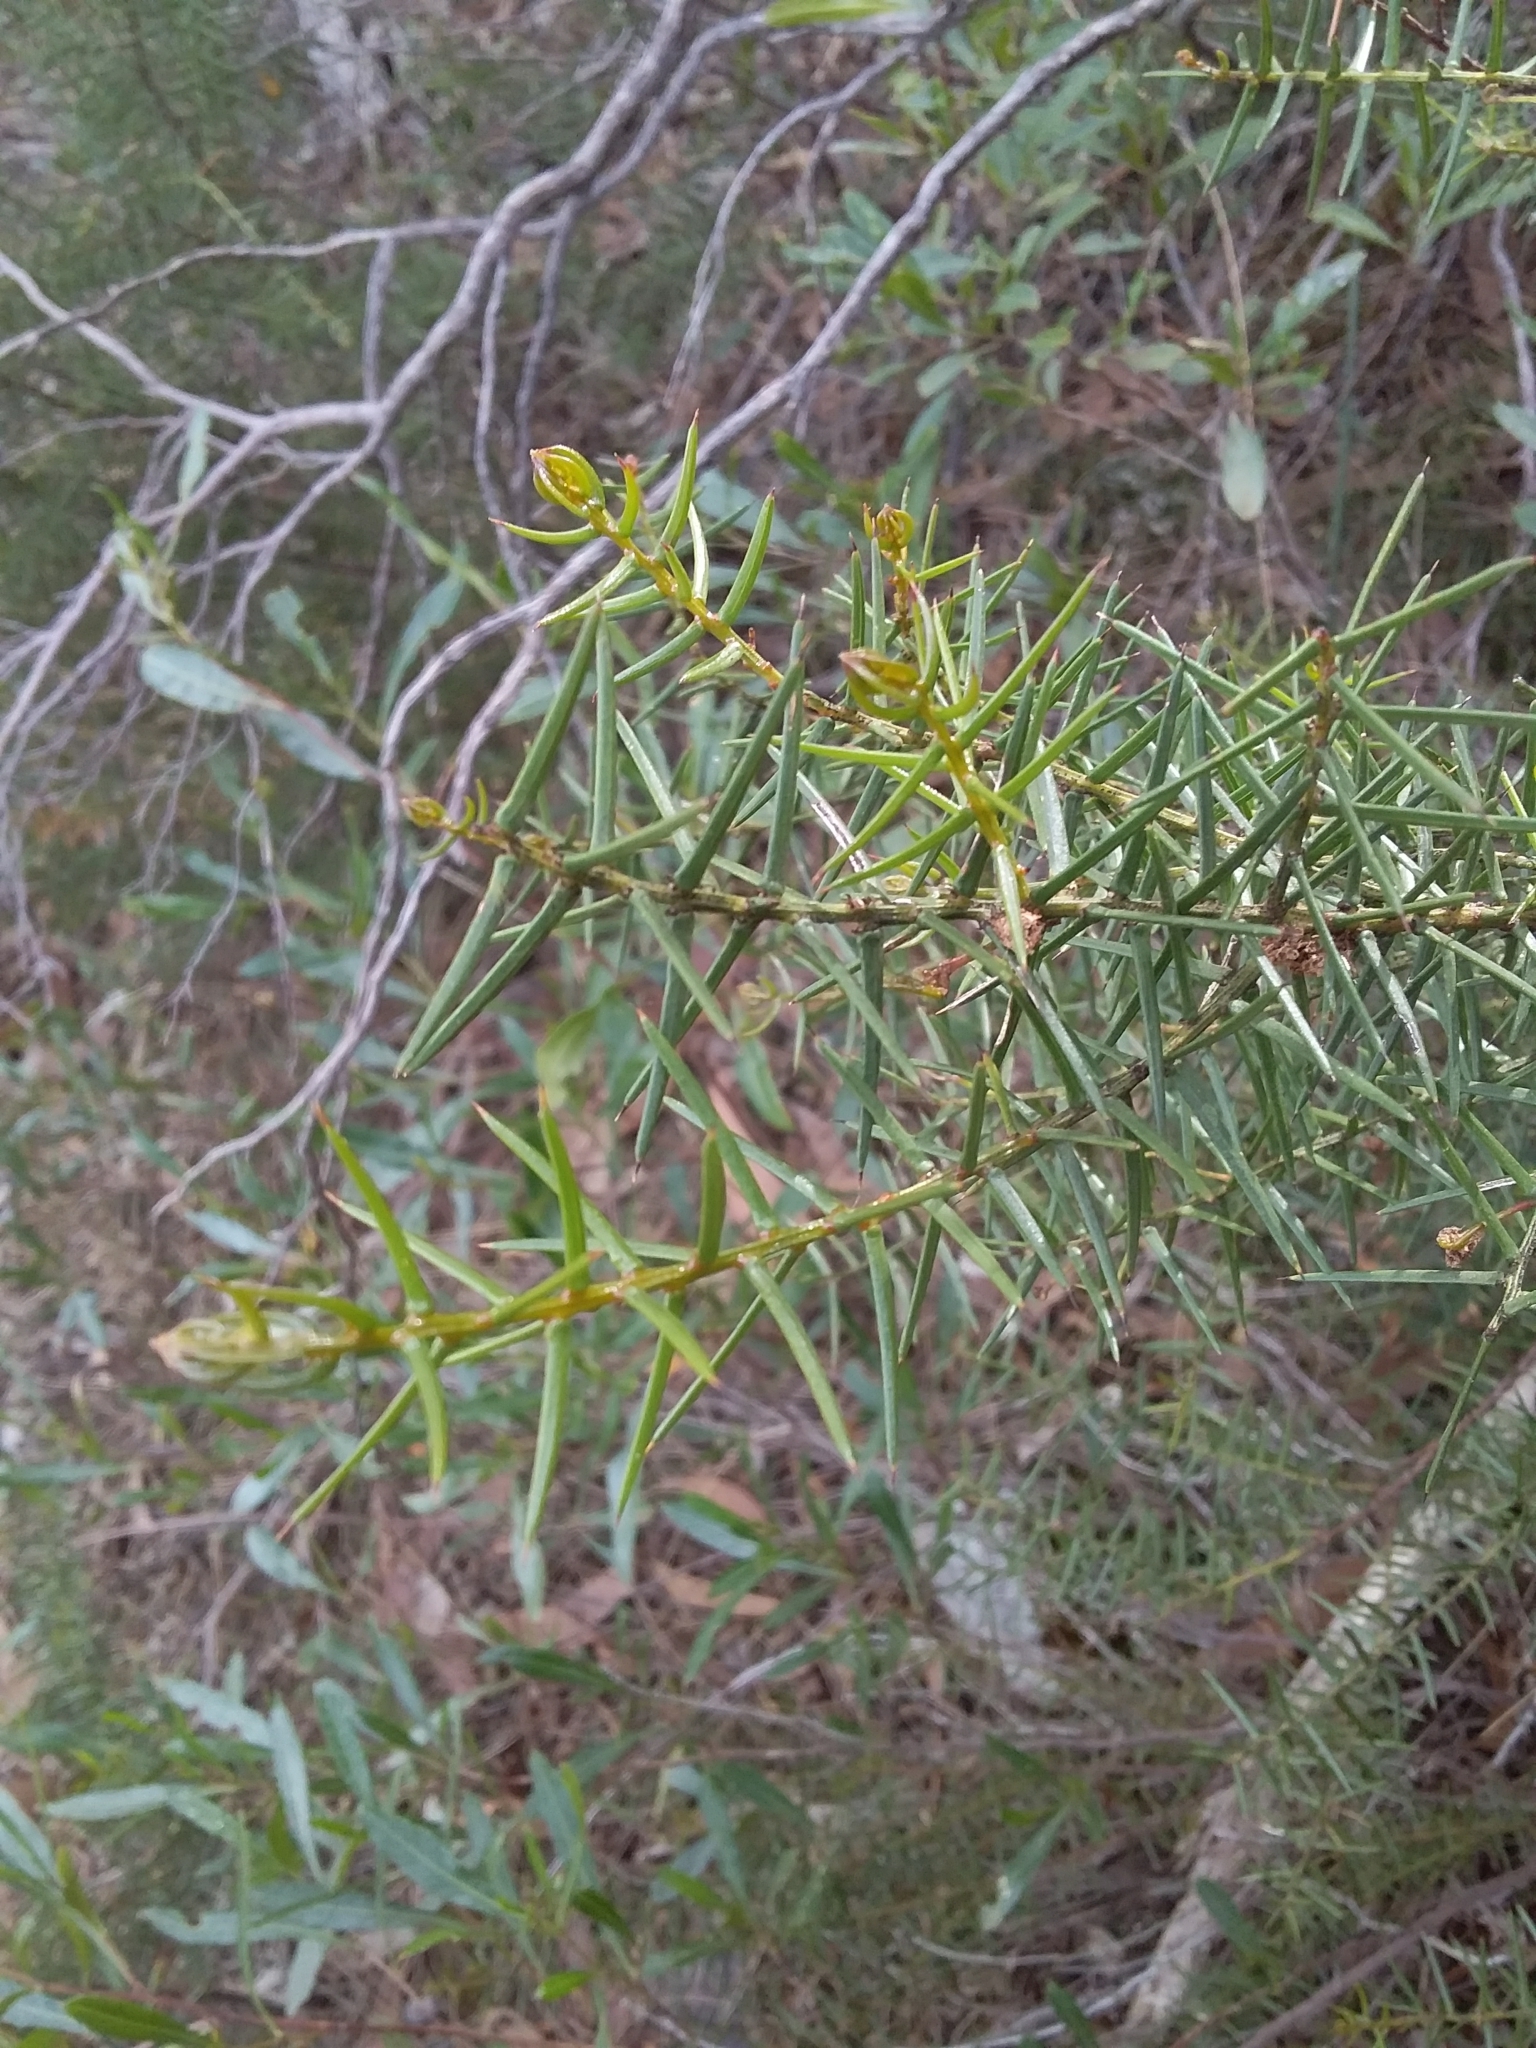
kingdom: Plantae
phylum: Tracheophyta
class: Magnoliopsida
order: Fabales
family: Fabaceae
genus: Acacia
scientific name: Acacia rupicola
